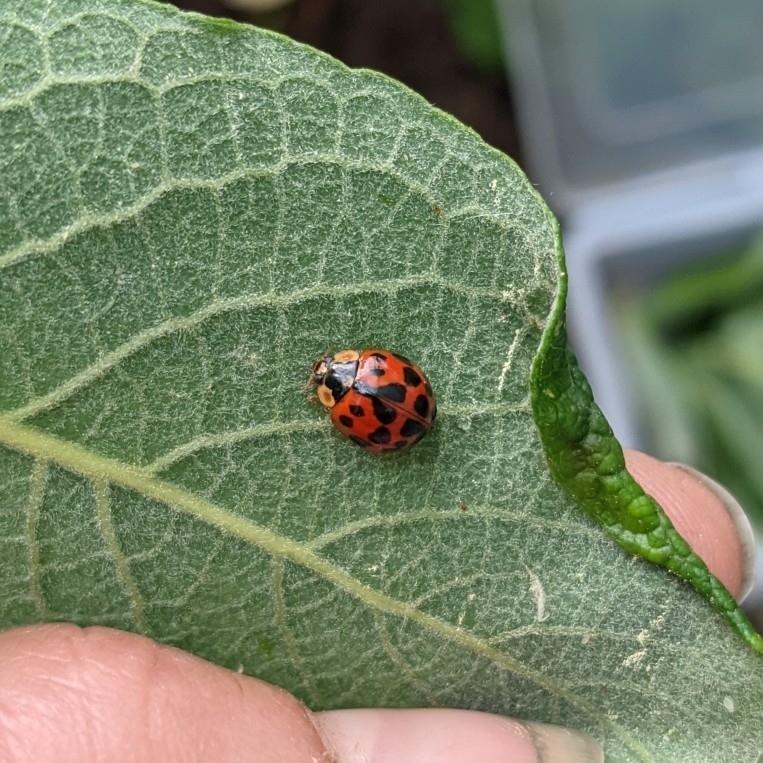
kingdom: Animalia
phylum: Arthropoda
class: Insecta
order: Coleoptera
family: Coccinellidae
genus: Harmonia
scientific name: Harmonia axyridis
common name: Harlequin ladybird
